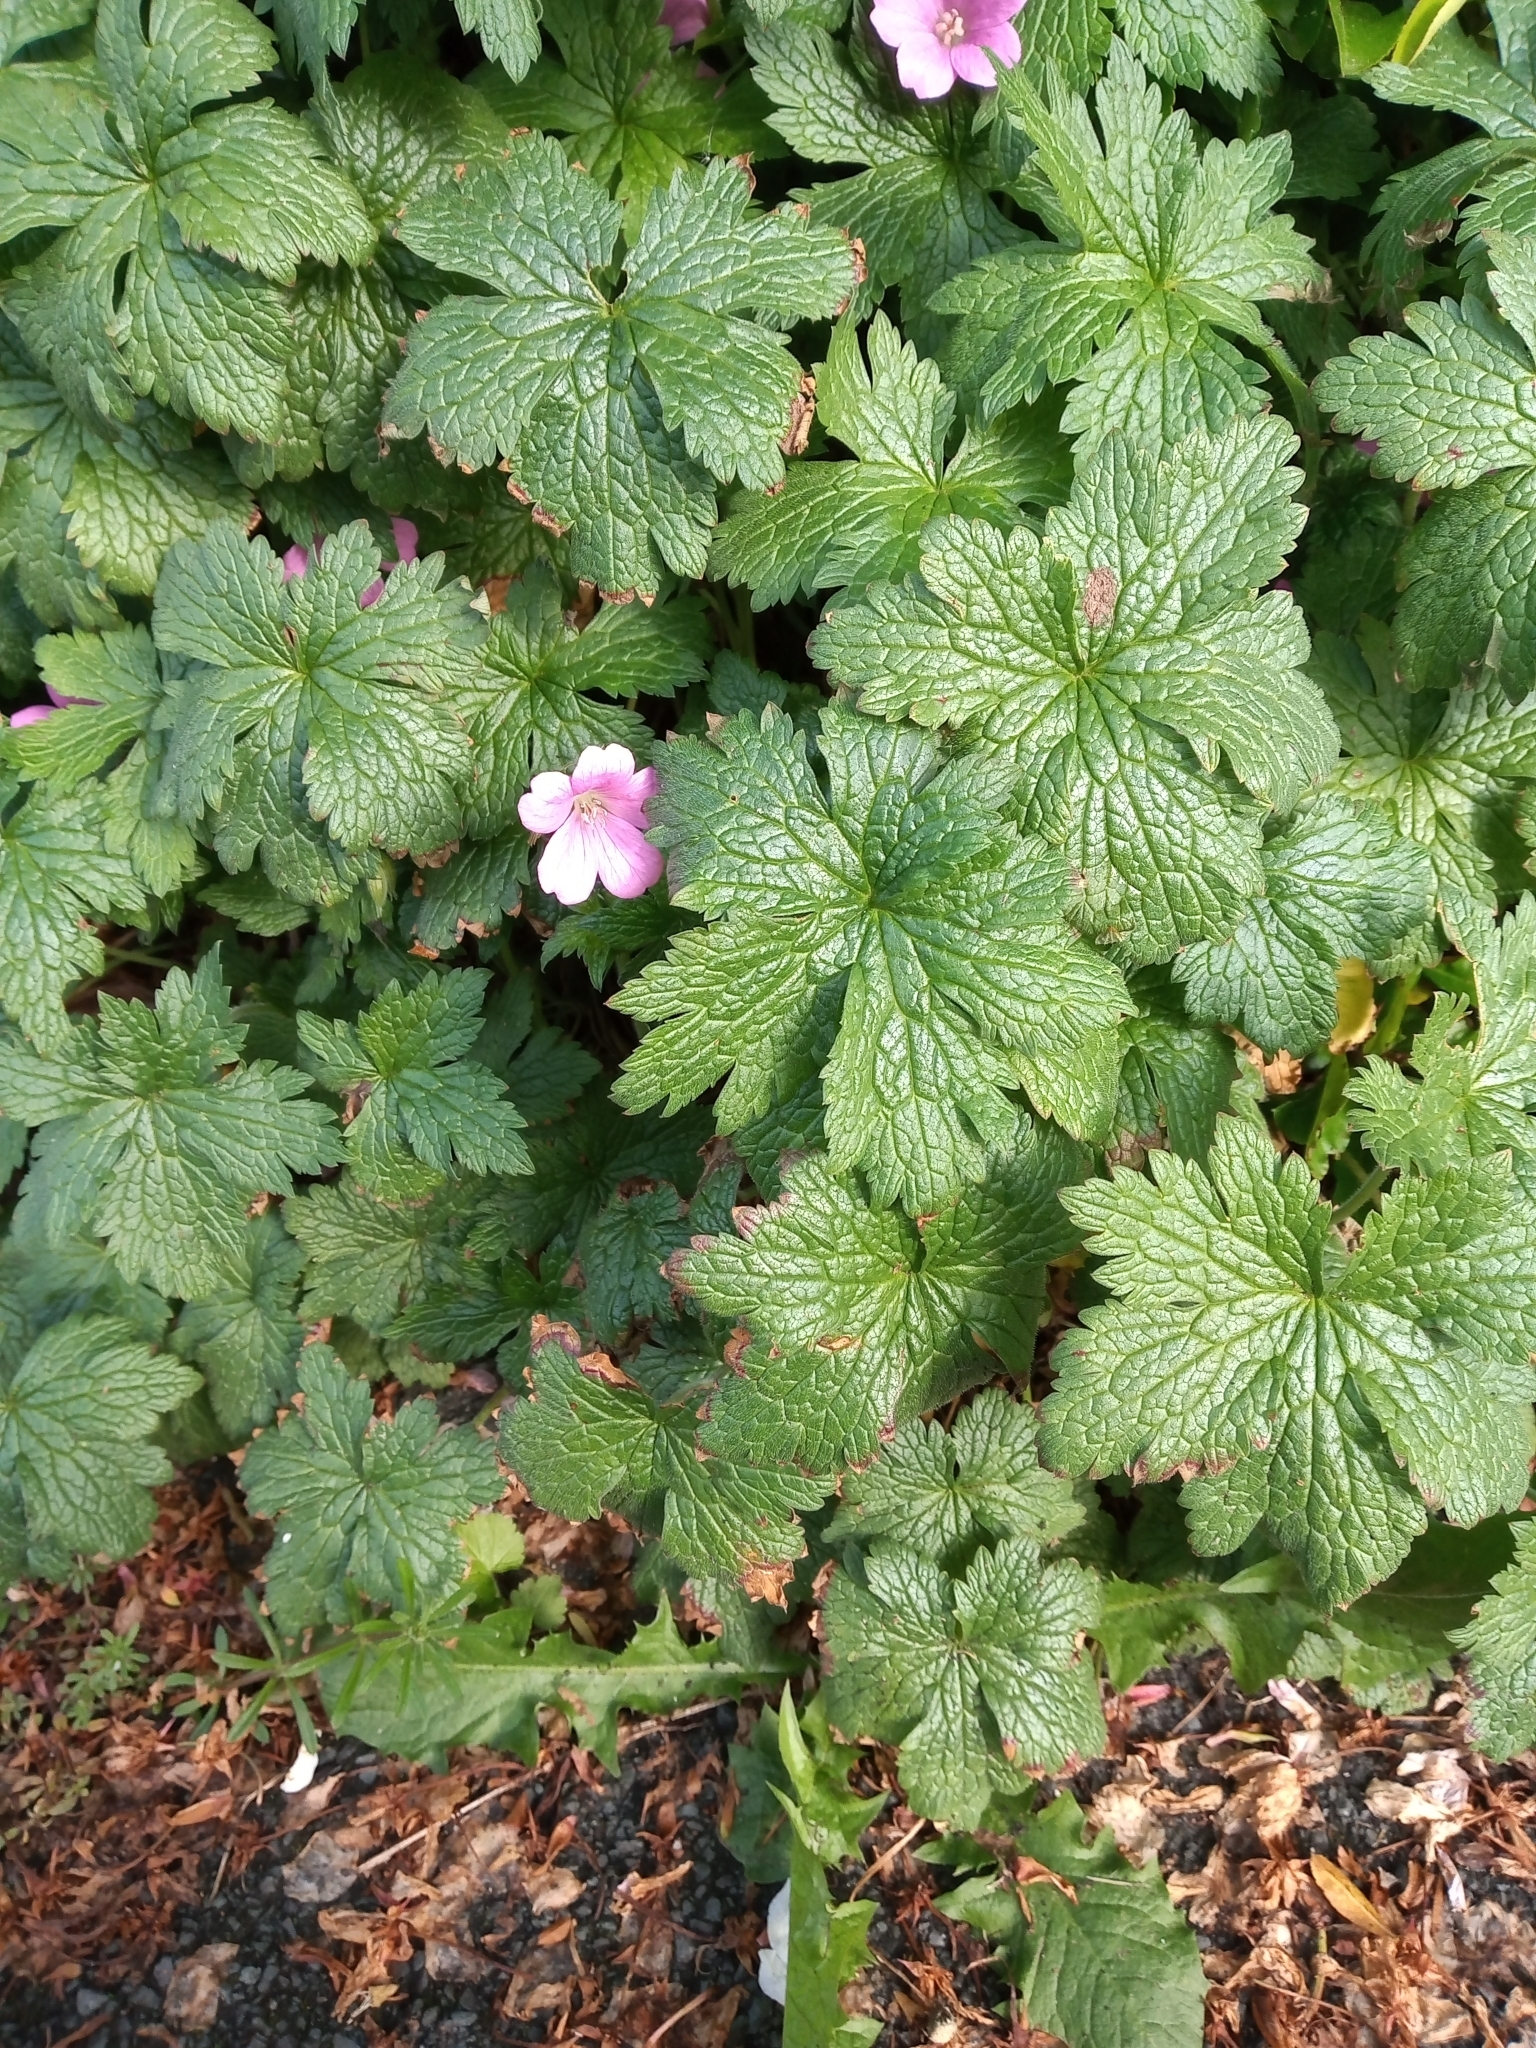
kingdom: Plantae
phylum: Tracheophyta
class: Magnoliopsida
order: Geraniales
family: Geraniaceae
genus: Geranium
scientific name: Geranium oxonianum
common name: Druce's crane's-bill
